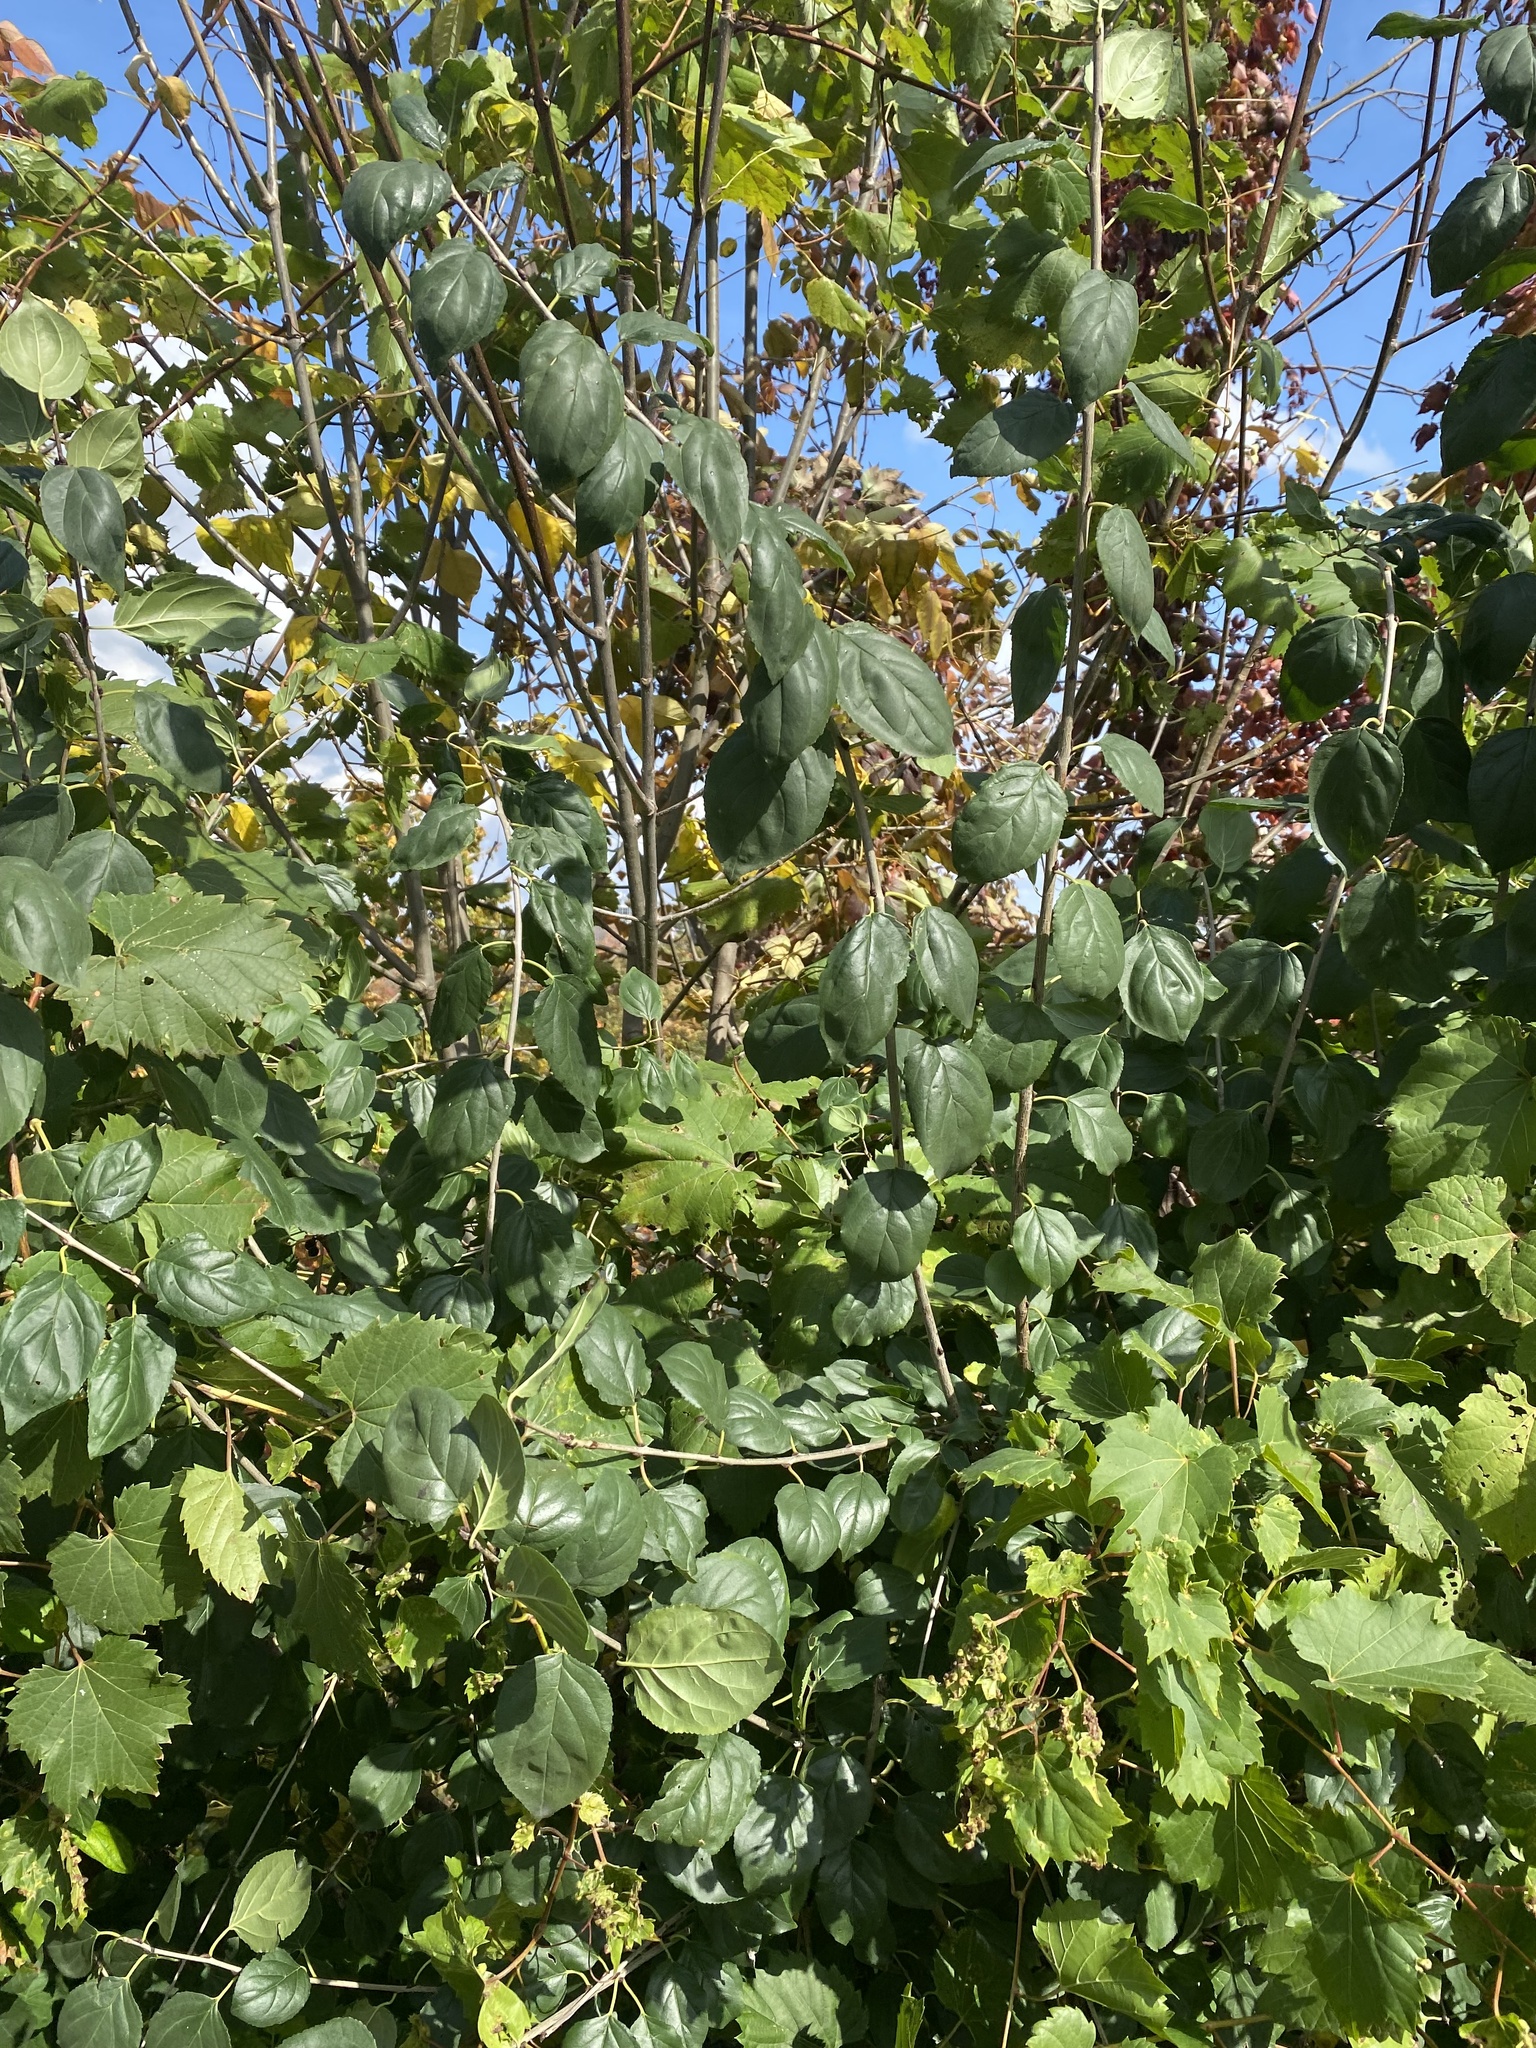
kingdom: Plantae
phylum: Tracheophyta
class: Magnoliopsida
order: Rosales
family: Rhamnaceae
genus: Rhamnus
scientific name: Rhamnus cathartica
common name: Common buckthorn
